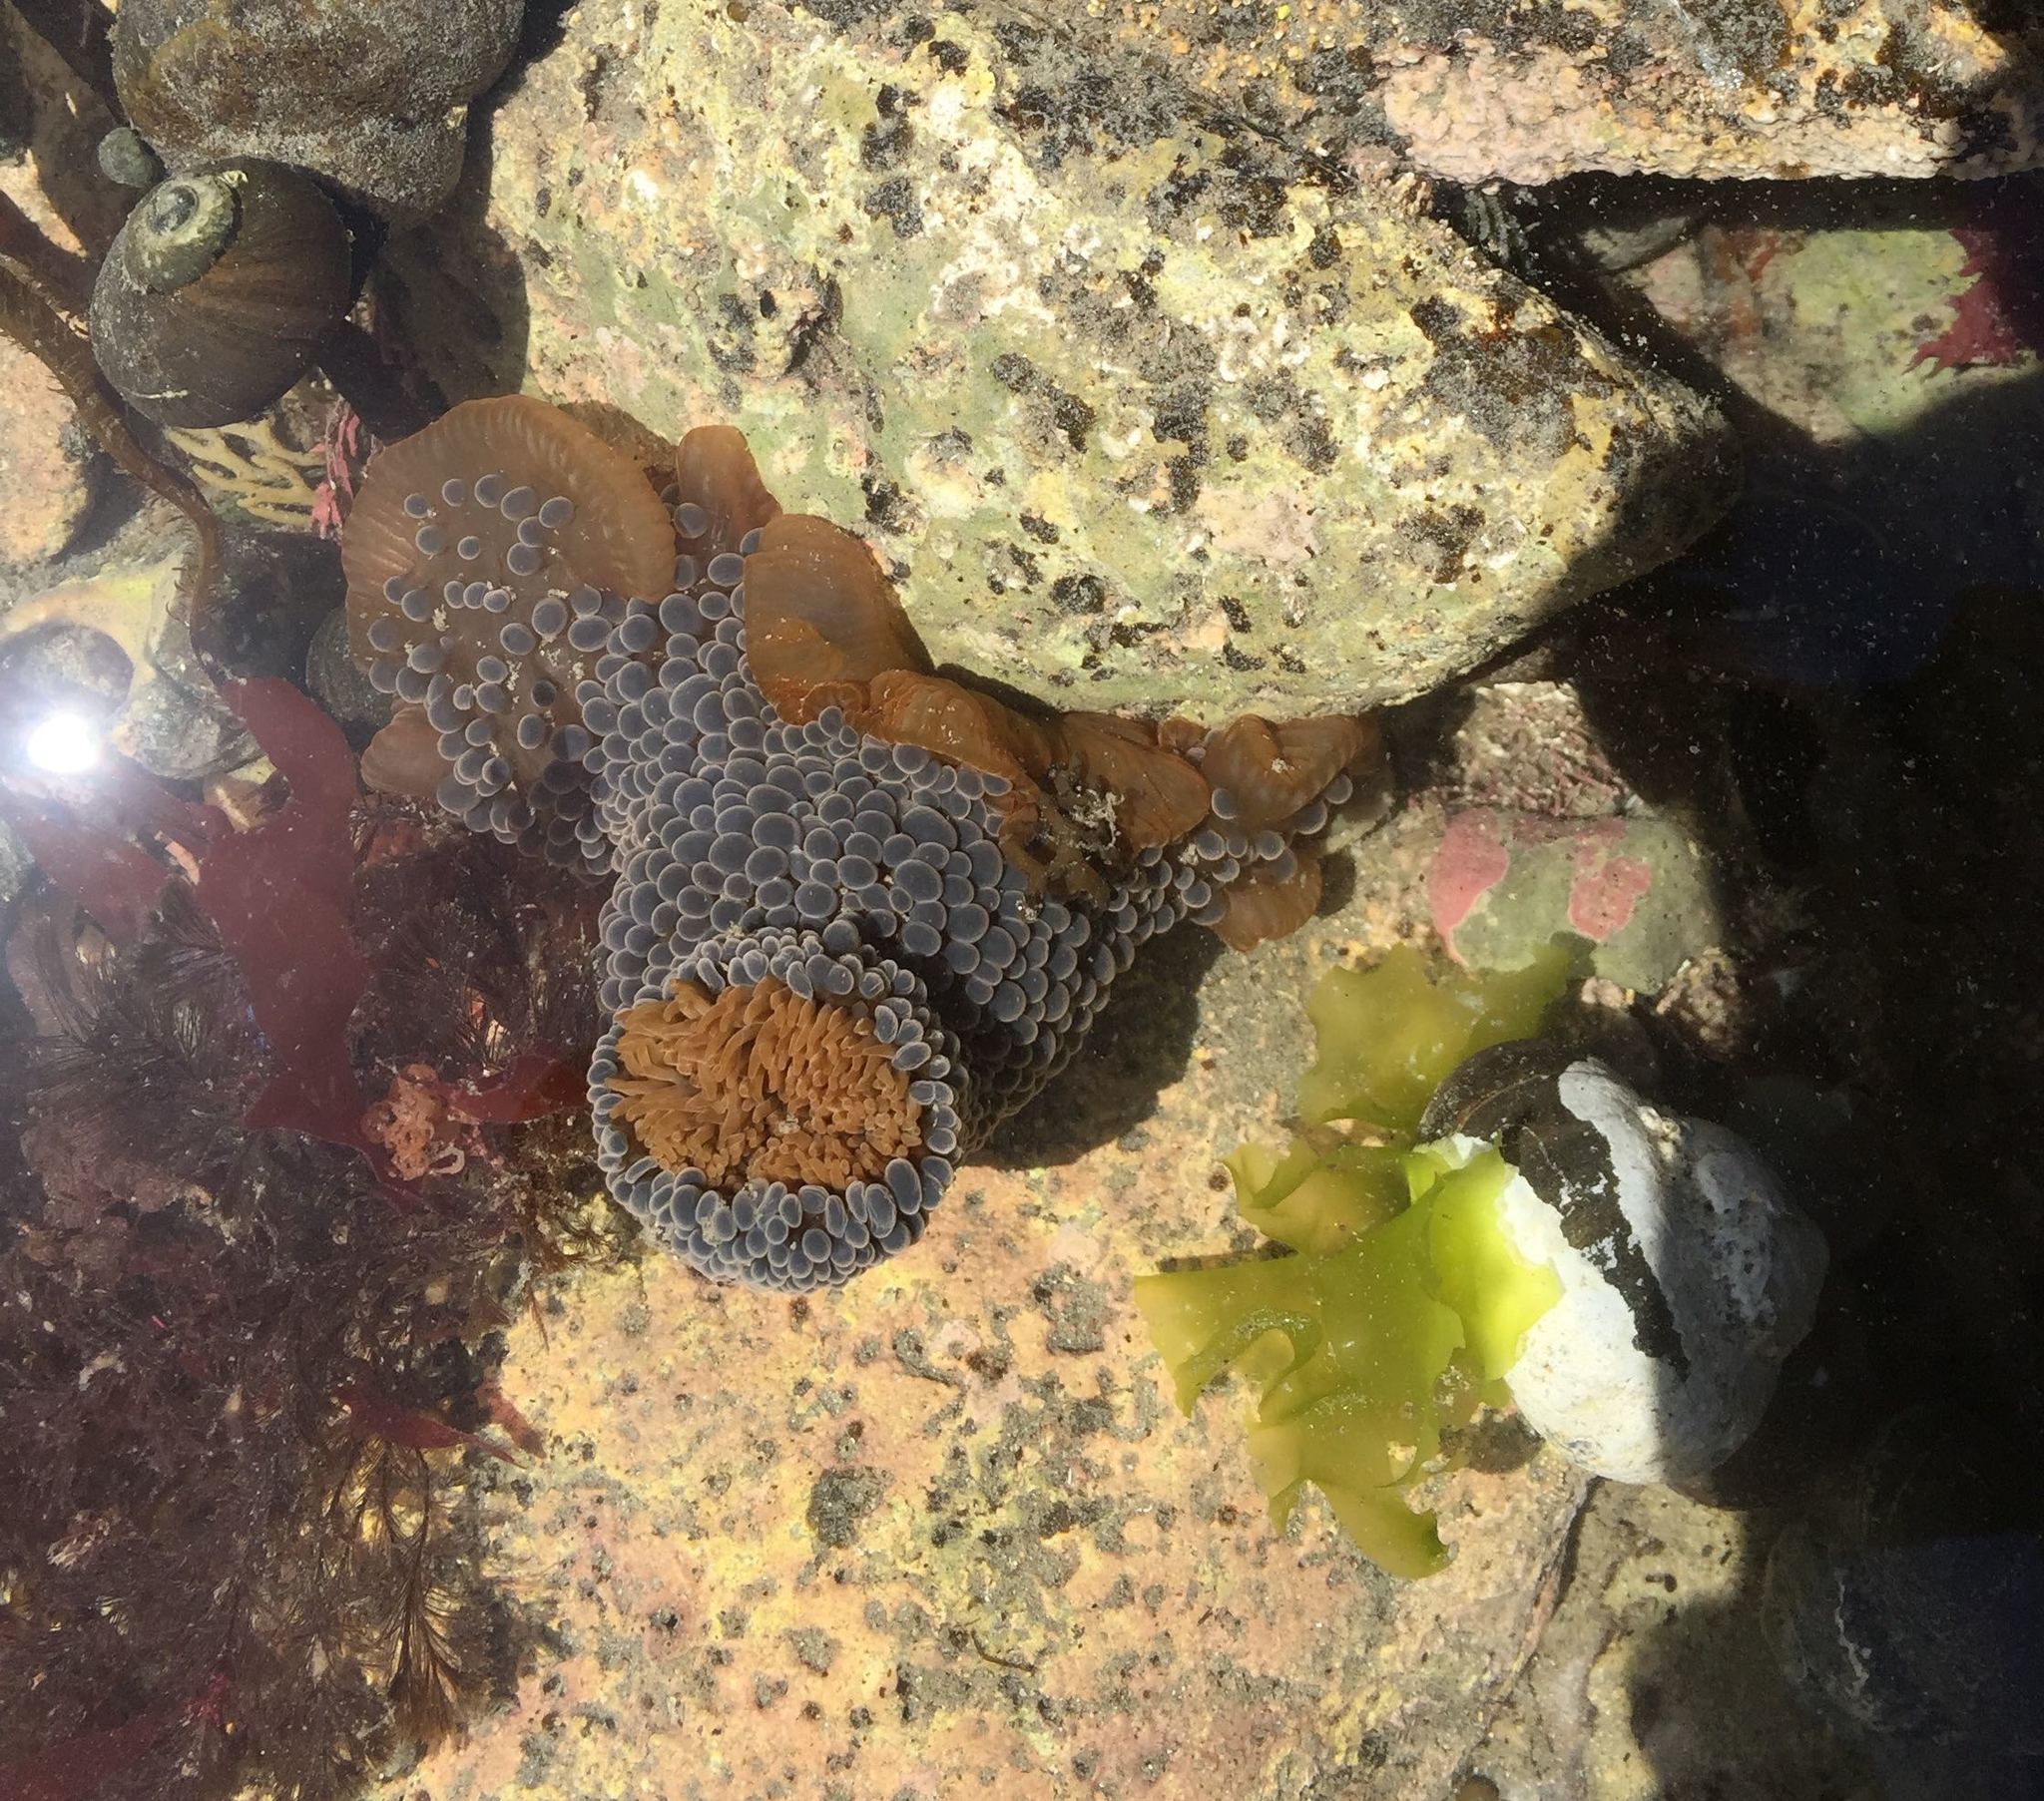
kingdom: Animalia
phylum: Cnidaria
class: Anthozoa
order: Actiniaria
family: Actiniidae
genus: Phlyctenactis
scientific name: Phlyctenactis tuberculosa
